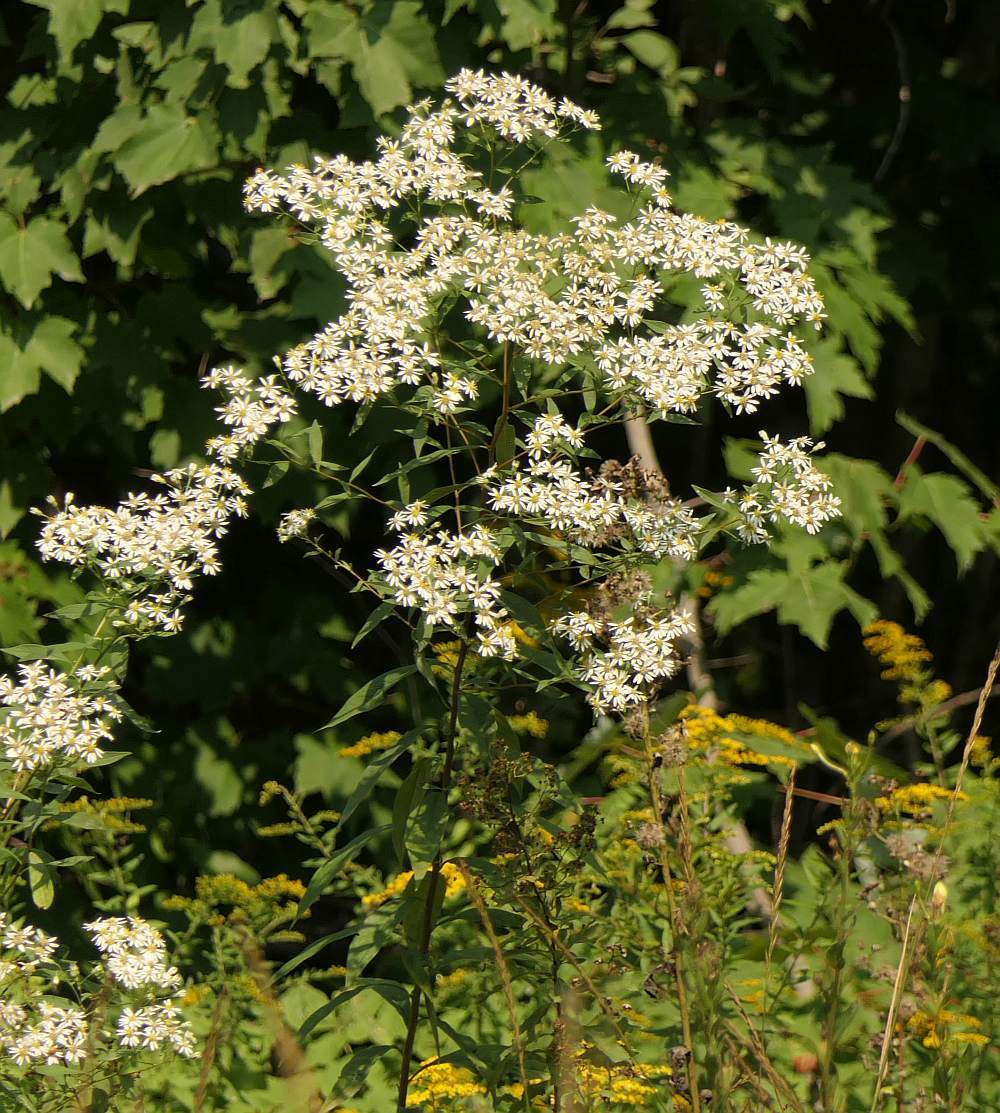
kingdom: Plantae
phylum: Tracheophyta
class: Magnoliopsida
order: Asterales
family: Asteraceae
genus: Doellingeria
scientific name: Doellingeria umbellata
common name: Flat-top white aster
